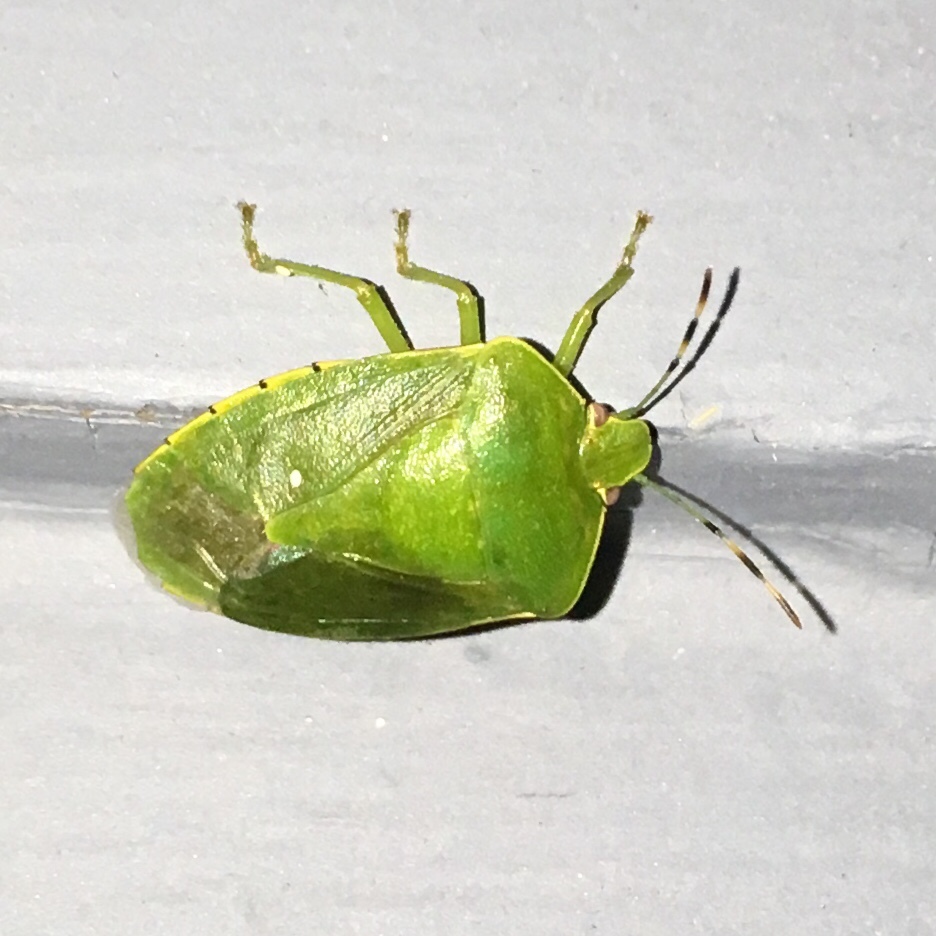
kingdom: Animalia
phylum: Arthropoda
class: Insecta
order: Hemiptera
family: Pentatomidae
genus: Chinavia
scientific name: Chinavia hilaris
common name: Green stink bug
